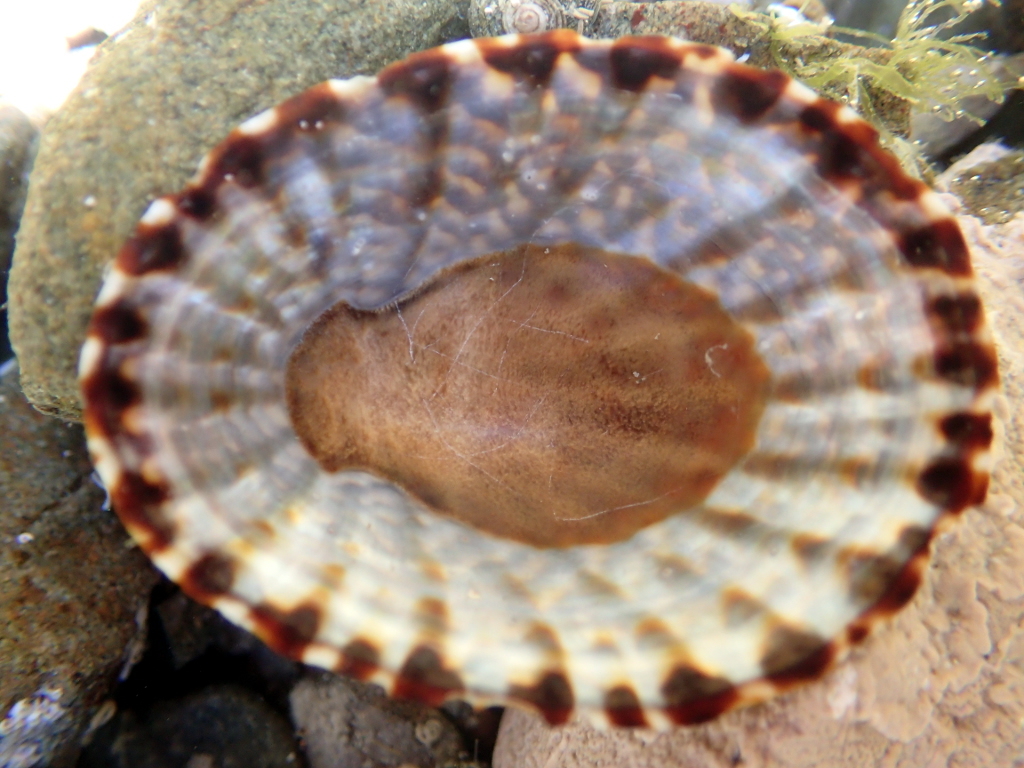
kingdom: Animalia
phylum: Mollusca
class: Gastropoda
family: Nacellidae
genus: Cellana
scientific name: Cellana denticulata
